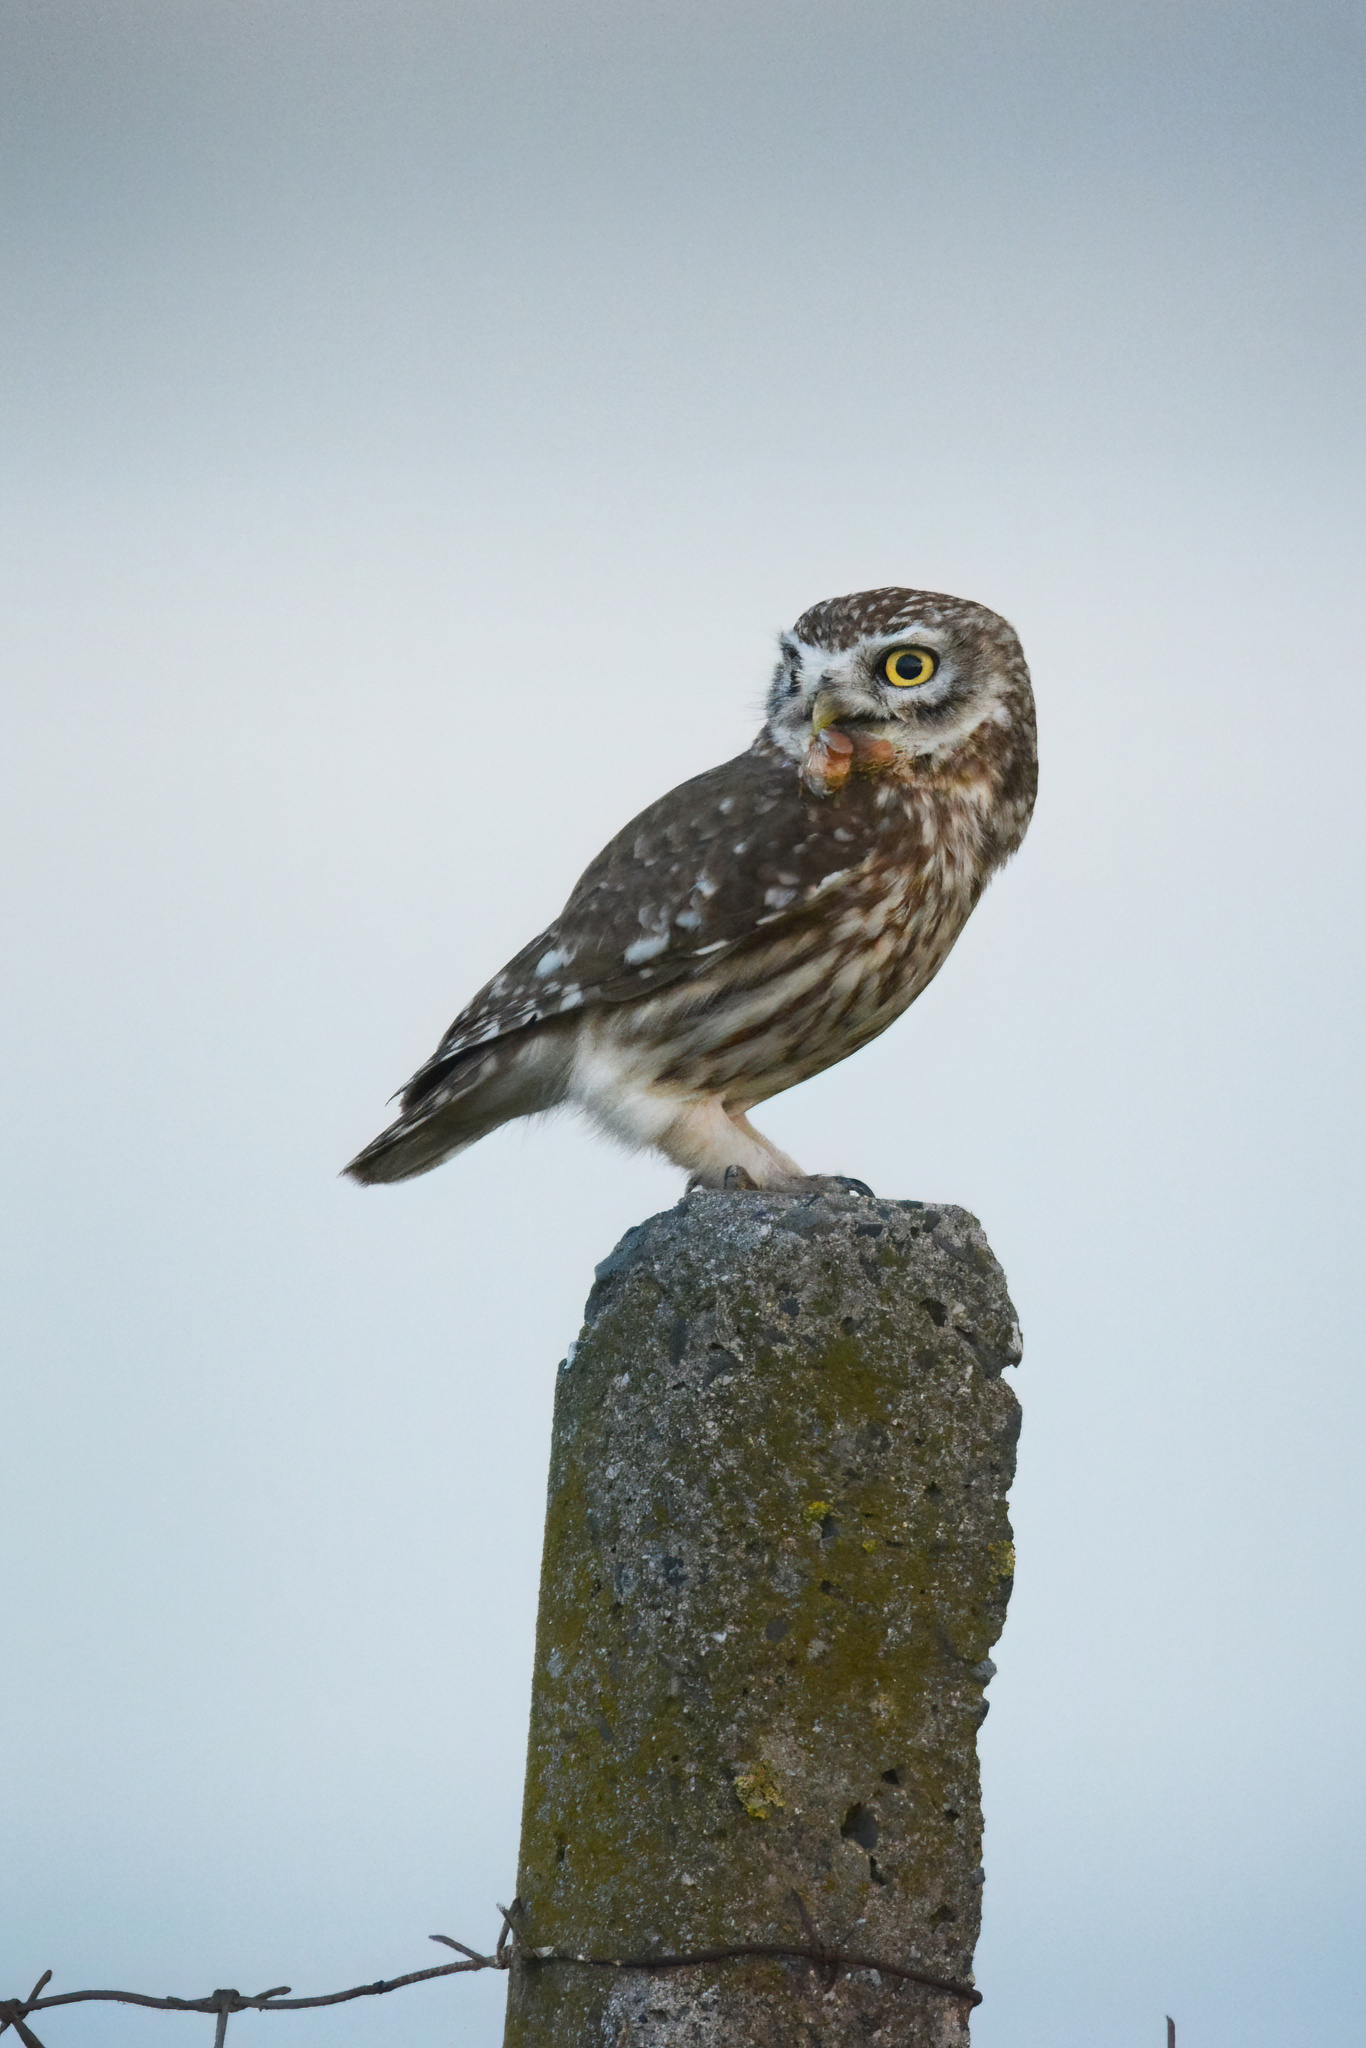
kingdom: Animalia
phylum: Chordata
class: Aves
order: Strigiformes
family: Strigidae
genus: Athene
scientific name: Athene noctua
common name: Little owl
